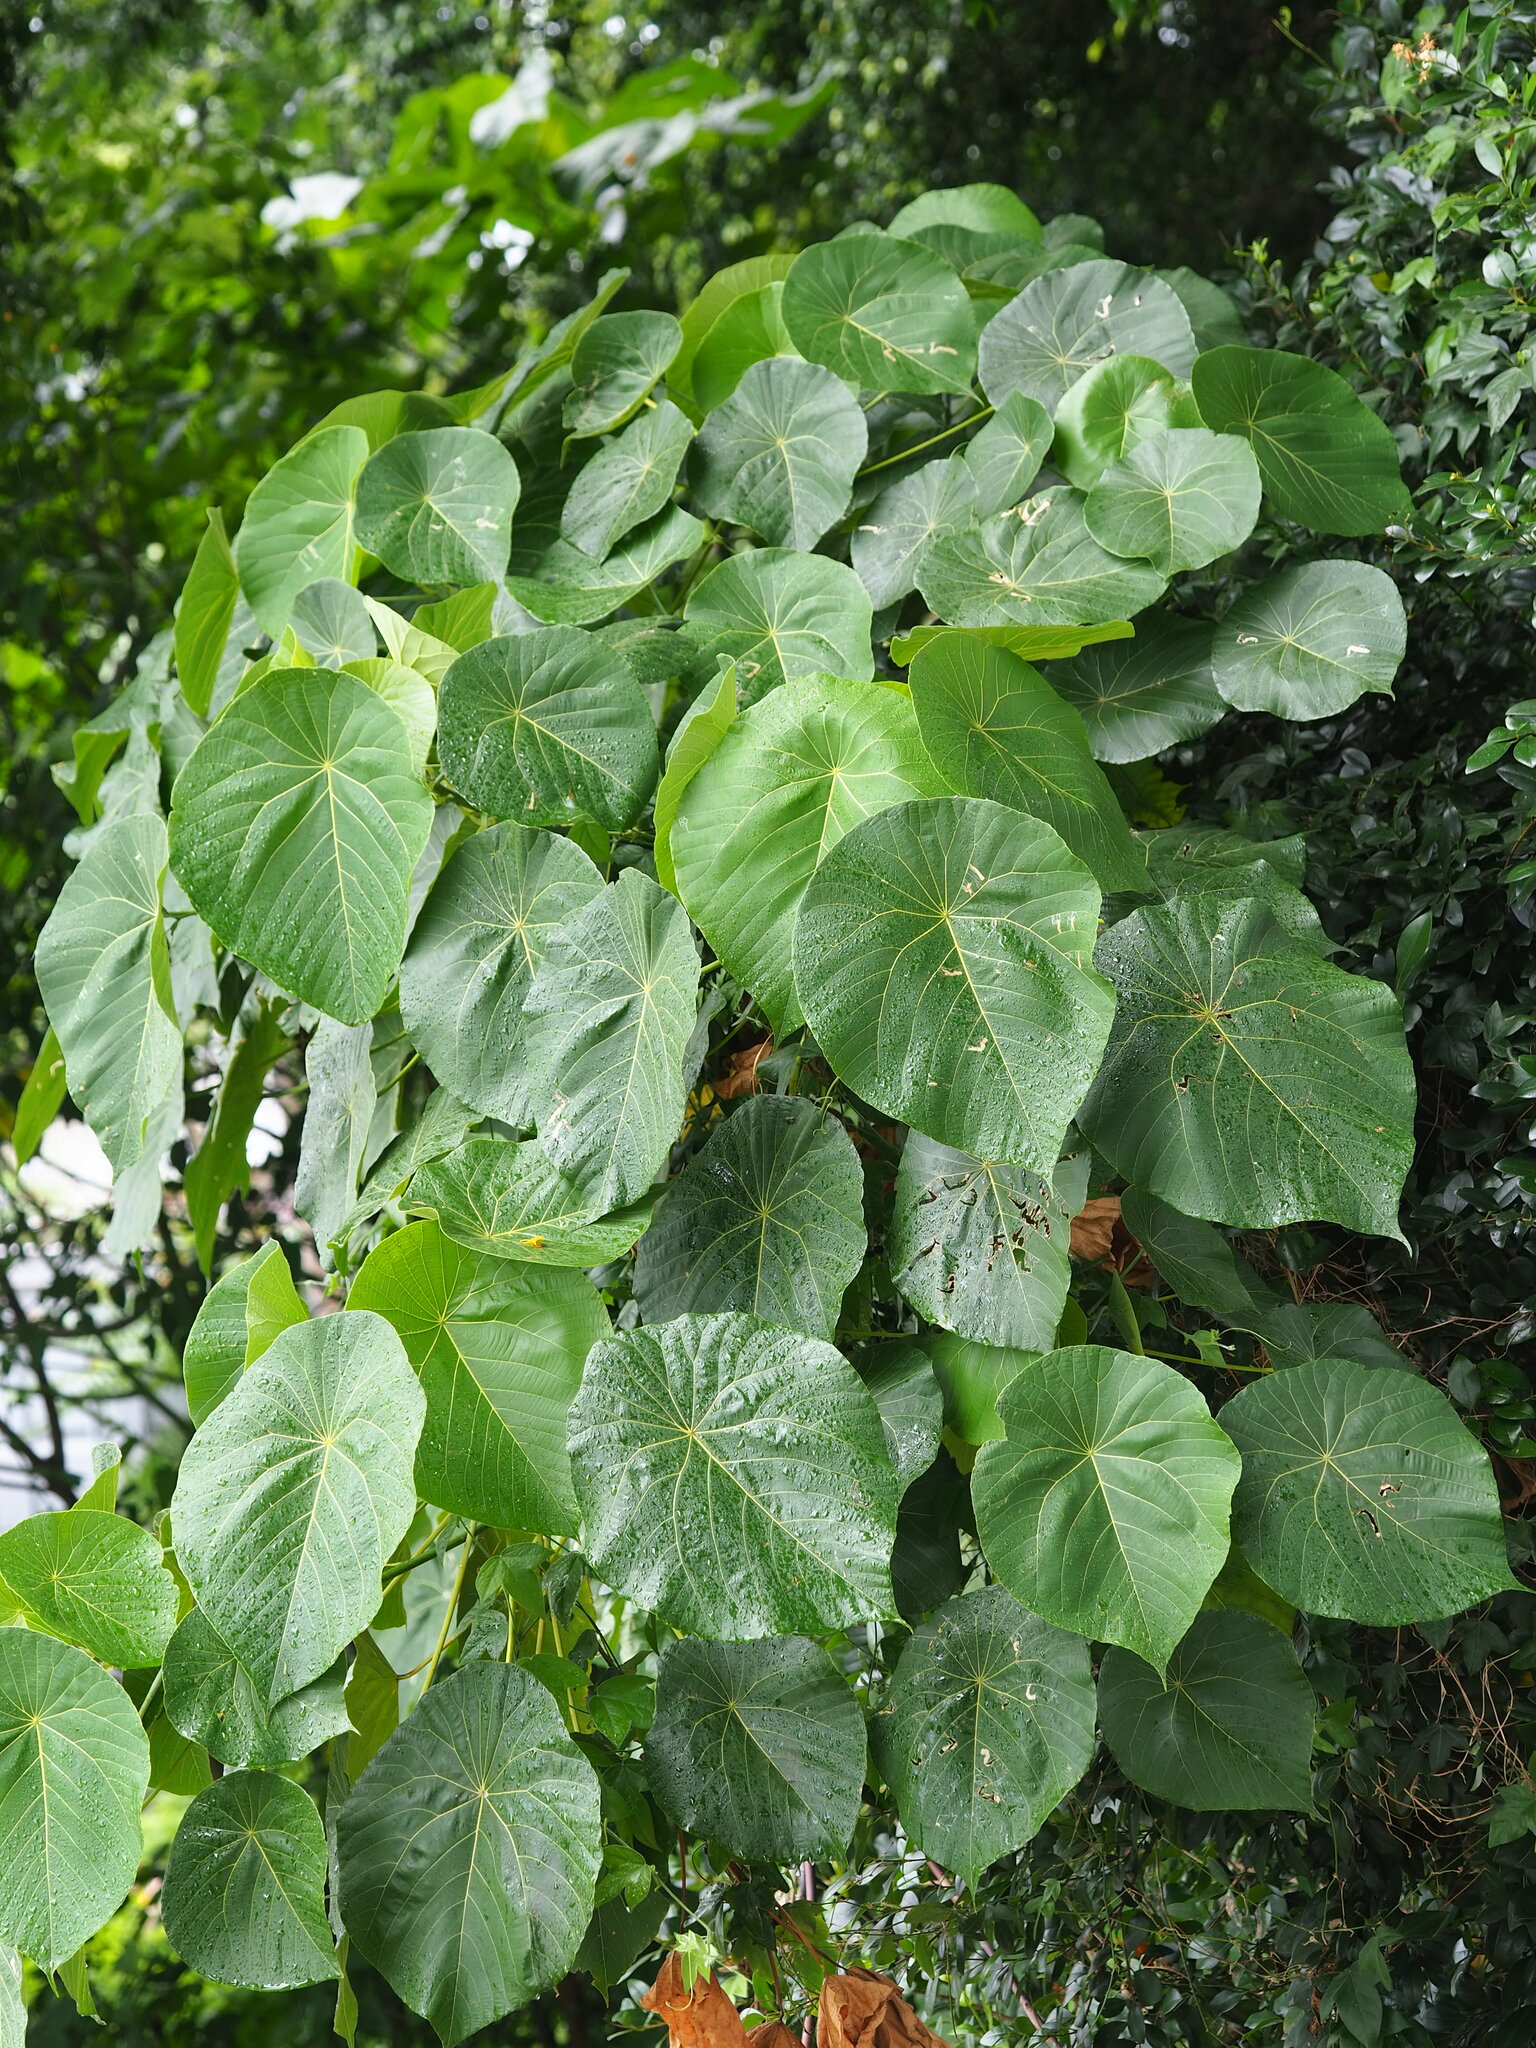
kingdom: Plantae
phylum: Tracheophyta
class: Magnoliopsida
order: Malpighiales
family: Euphorbiaceae
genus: Macaranga
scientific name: Macaranga tanarius
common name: Parasol leaf tree
